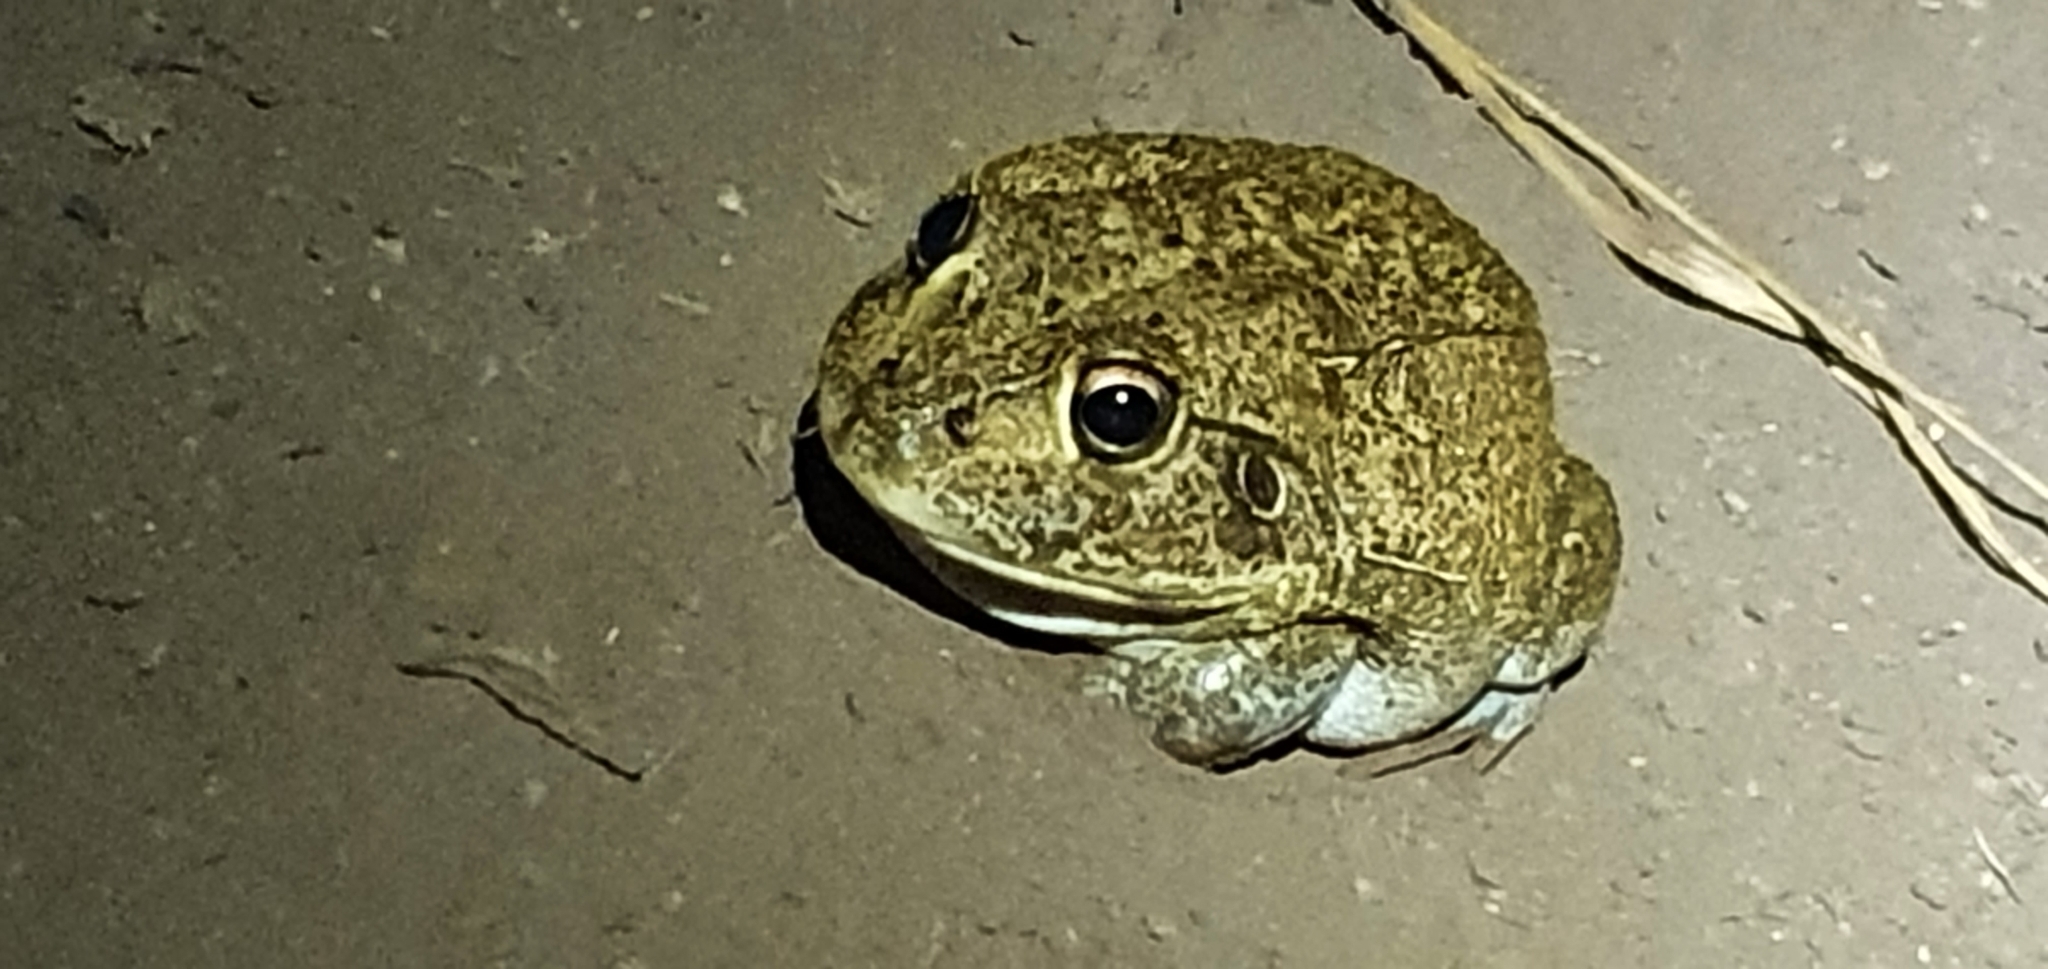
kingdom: Animalia
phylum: Chordata
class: Amphibia
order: Anura
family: Pelodryadidae
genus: Ranoidea
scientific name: Ranoidea novaehollandiae
